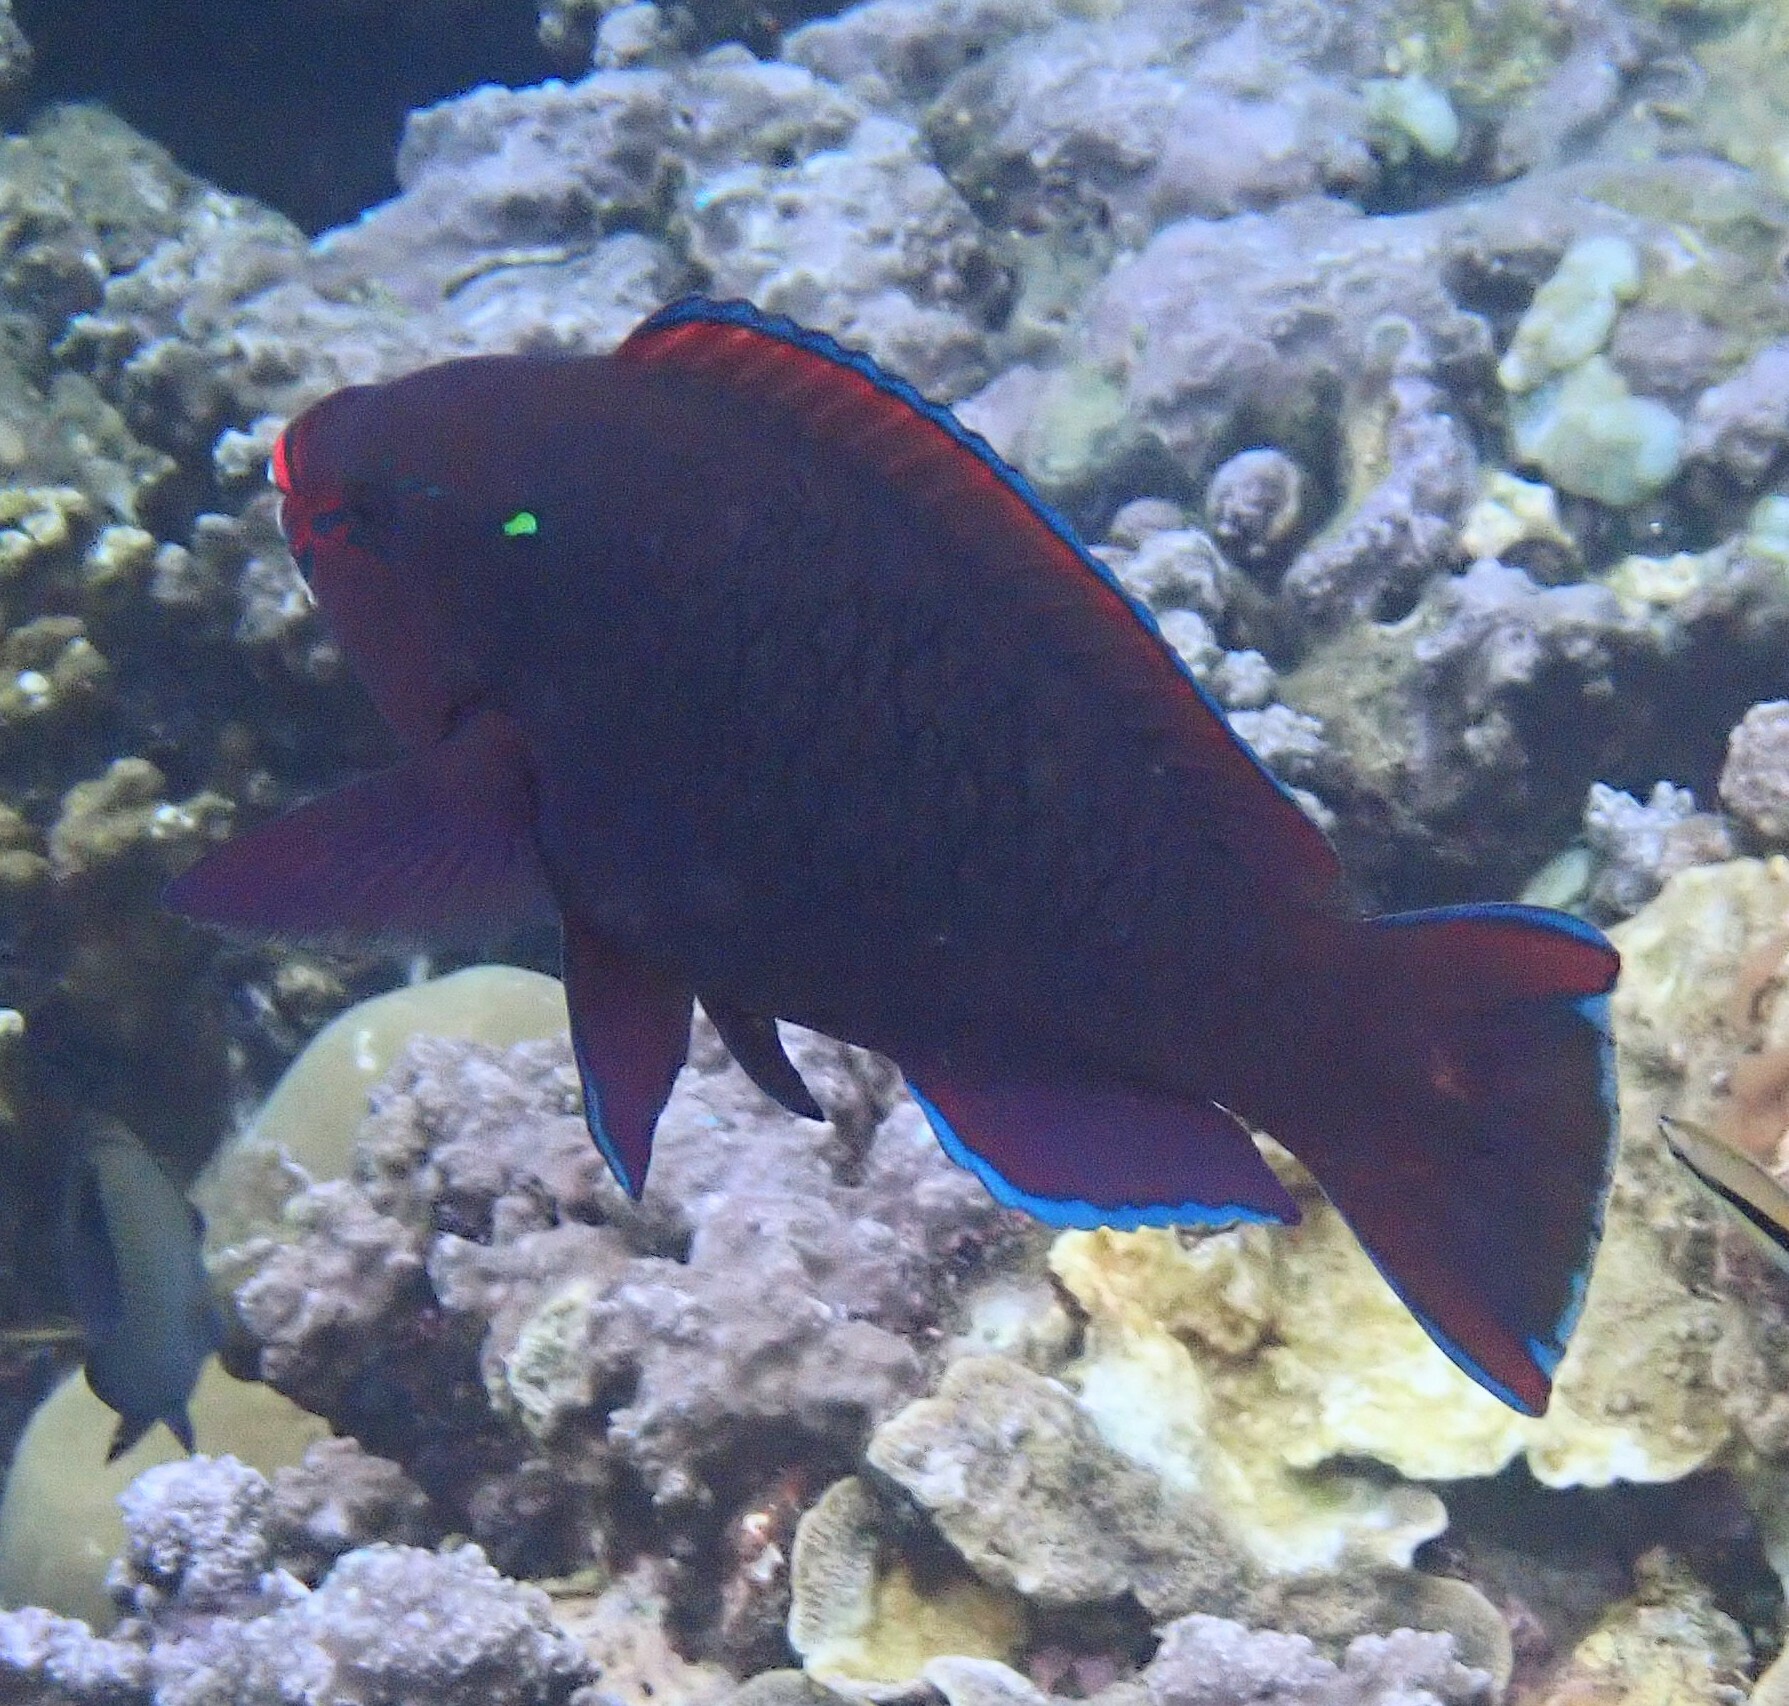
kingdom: Animalia
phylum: Chordata
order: Perciformes
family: Scaridae
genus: Scarus
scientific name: Scarus niger
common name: Dusky parrotfish
